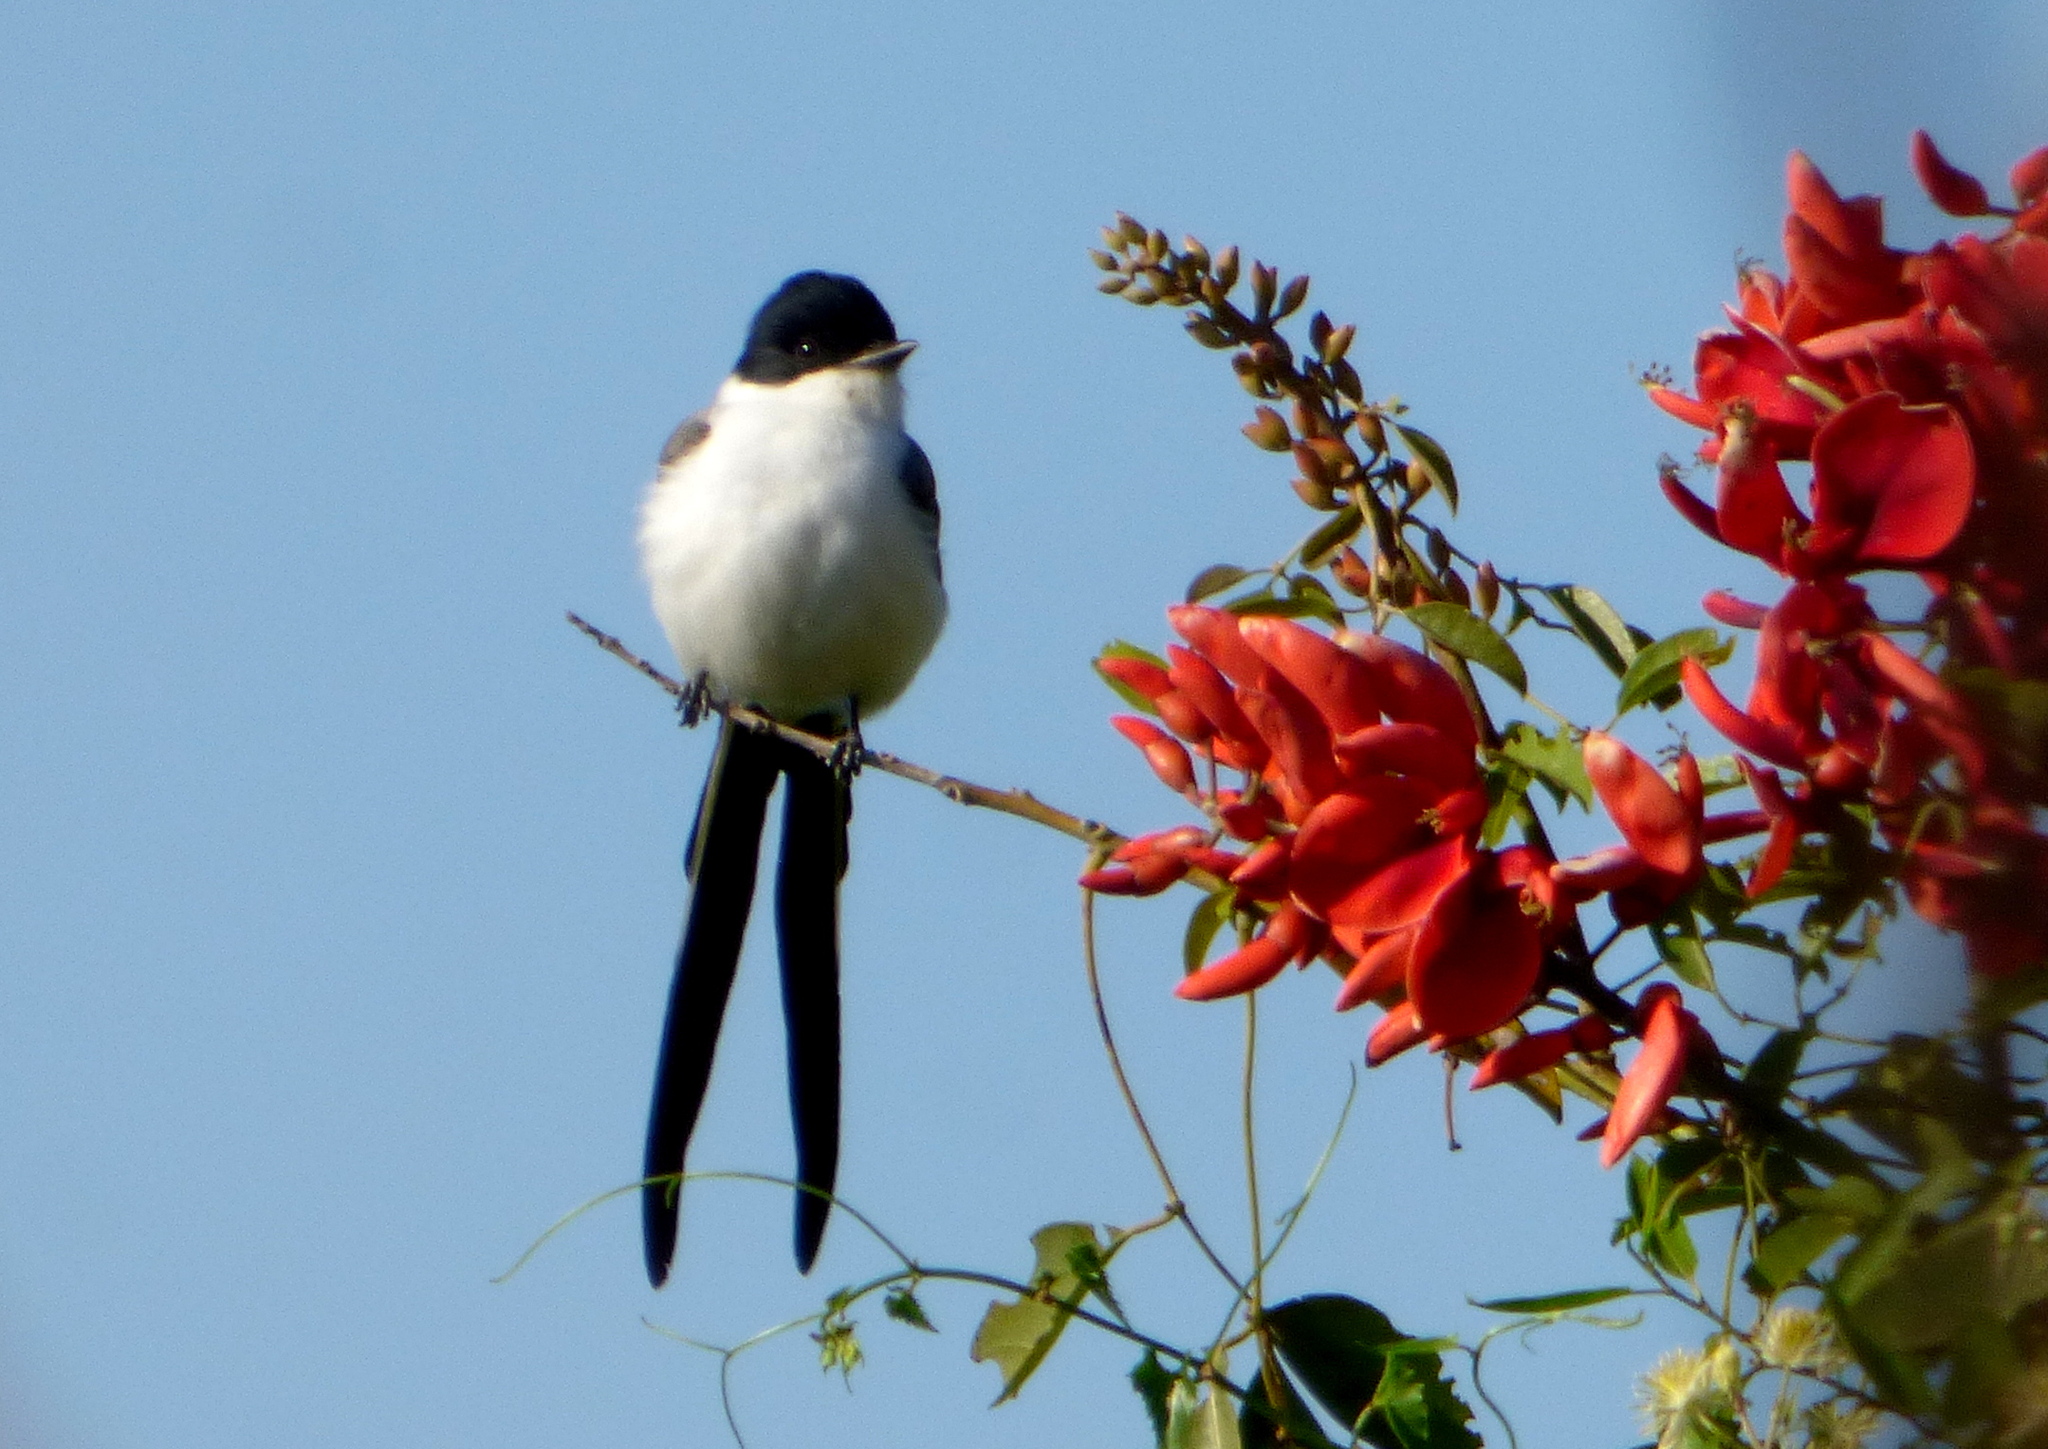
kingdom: Animalia
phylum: Chordata
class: Aves
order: Passeriformes
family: Tyrannidae
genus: Tyrannus
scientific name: Tyrannus savana
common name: Fork-tailed flycatcher
